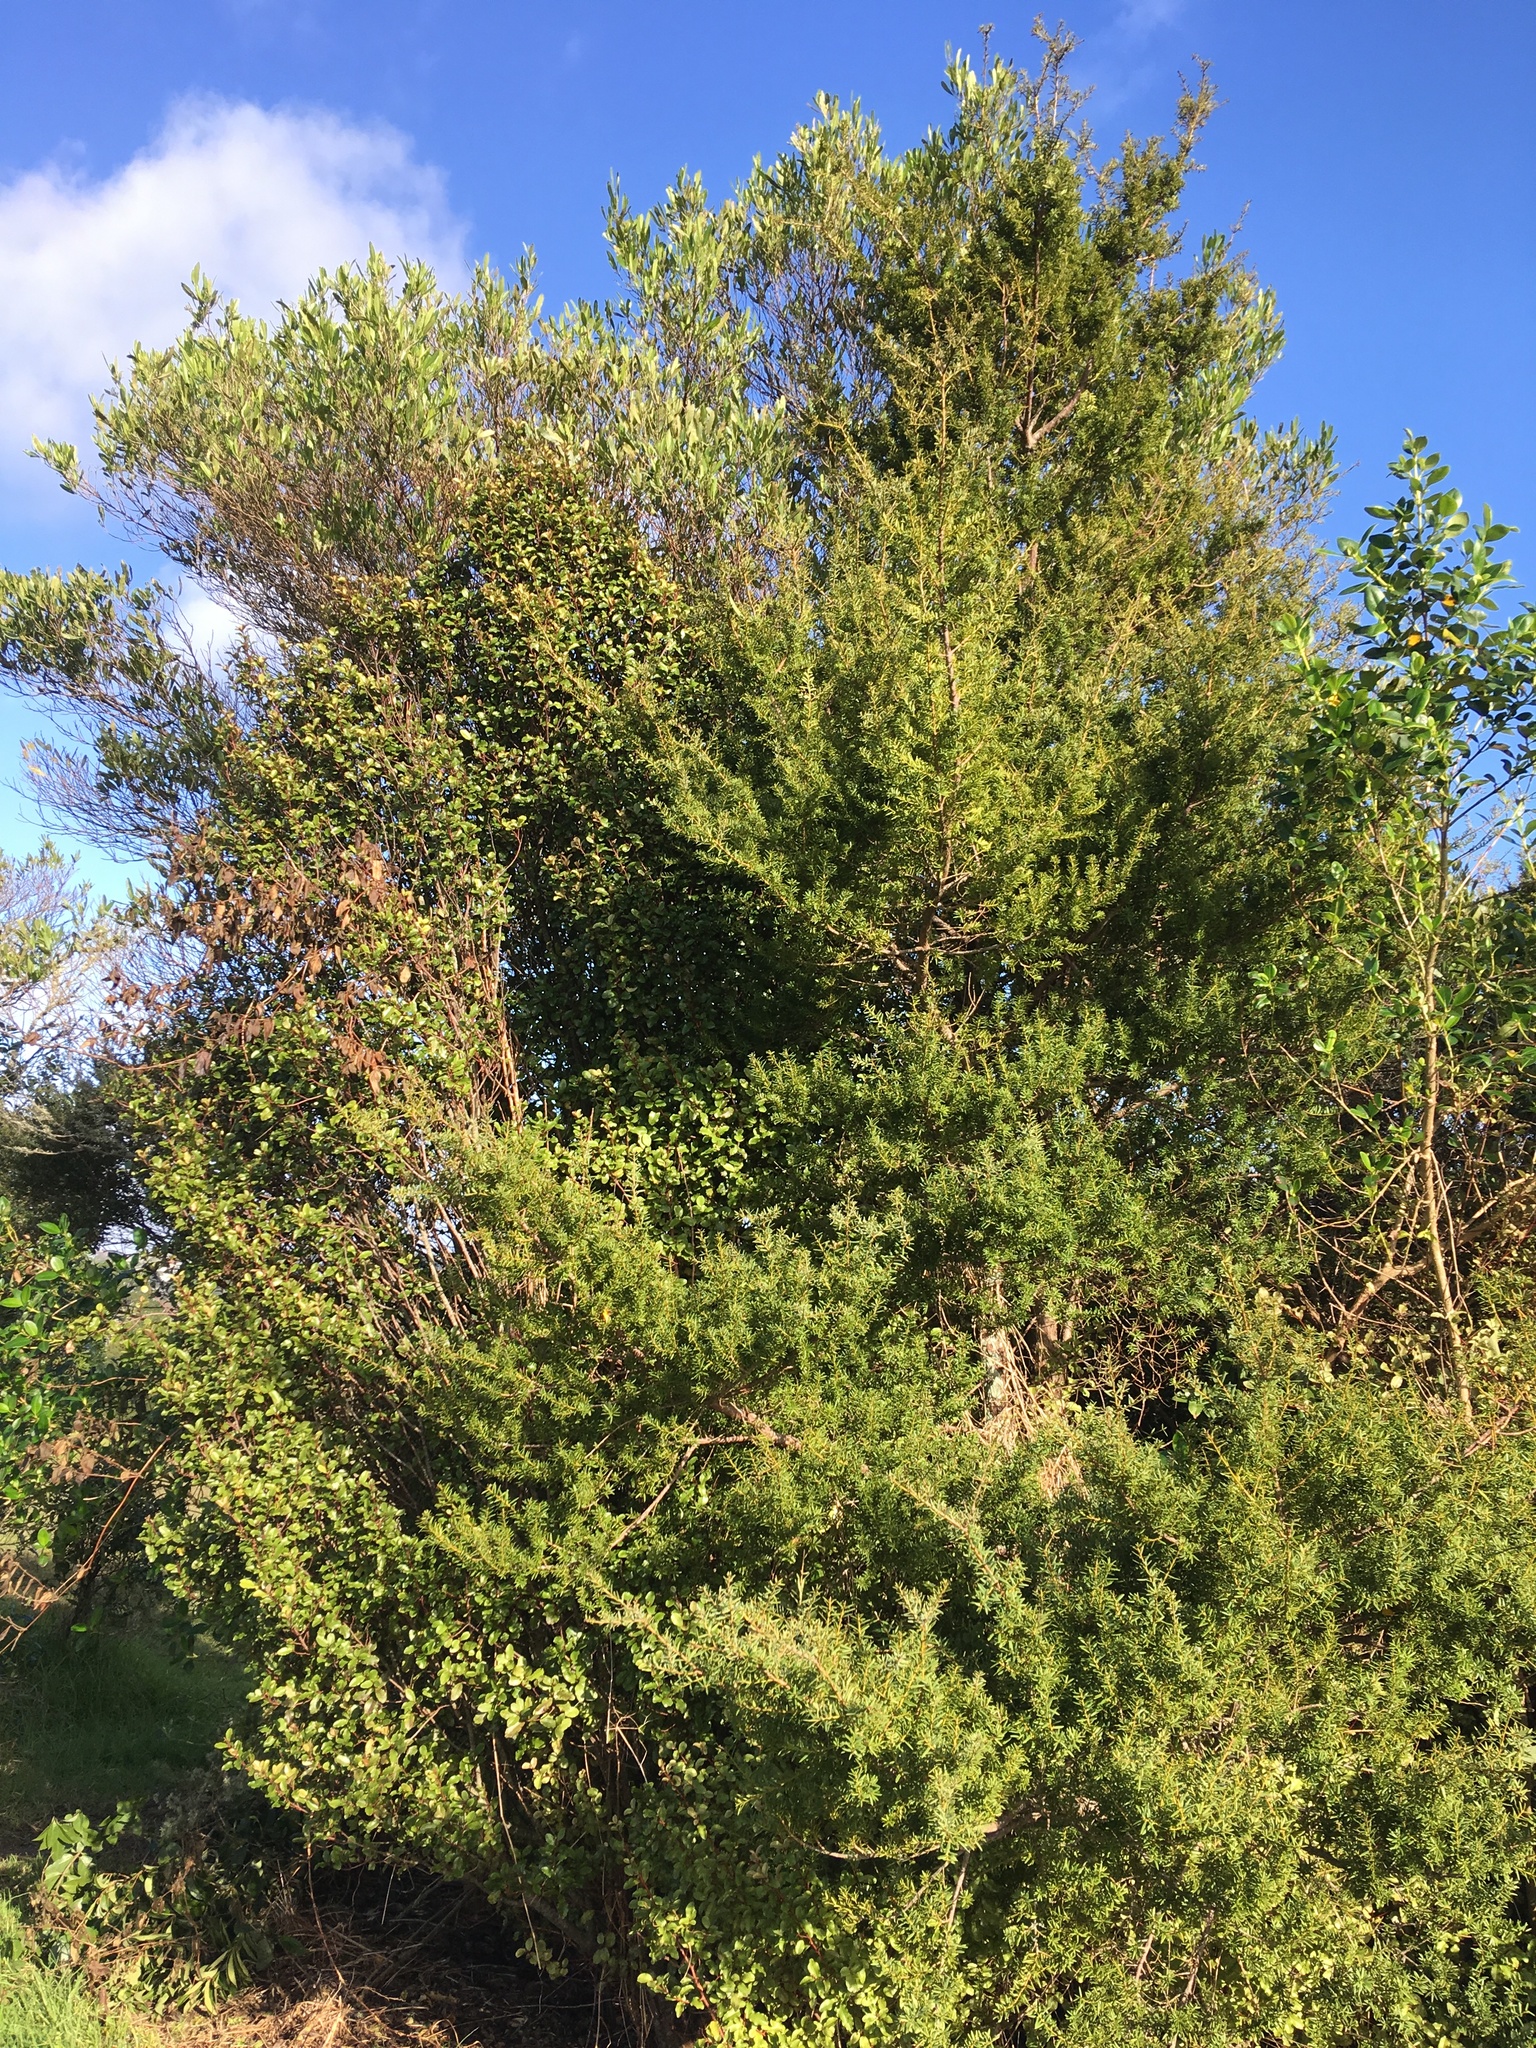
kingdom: Plantae
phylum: Tracheophyta
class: Magnoliopsida
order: Sapindales
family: Sapindaceae
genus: Dodonaea
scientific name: Dodonaea viscosa
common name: Hopbush
